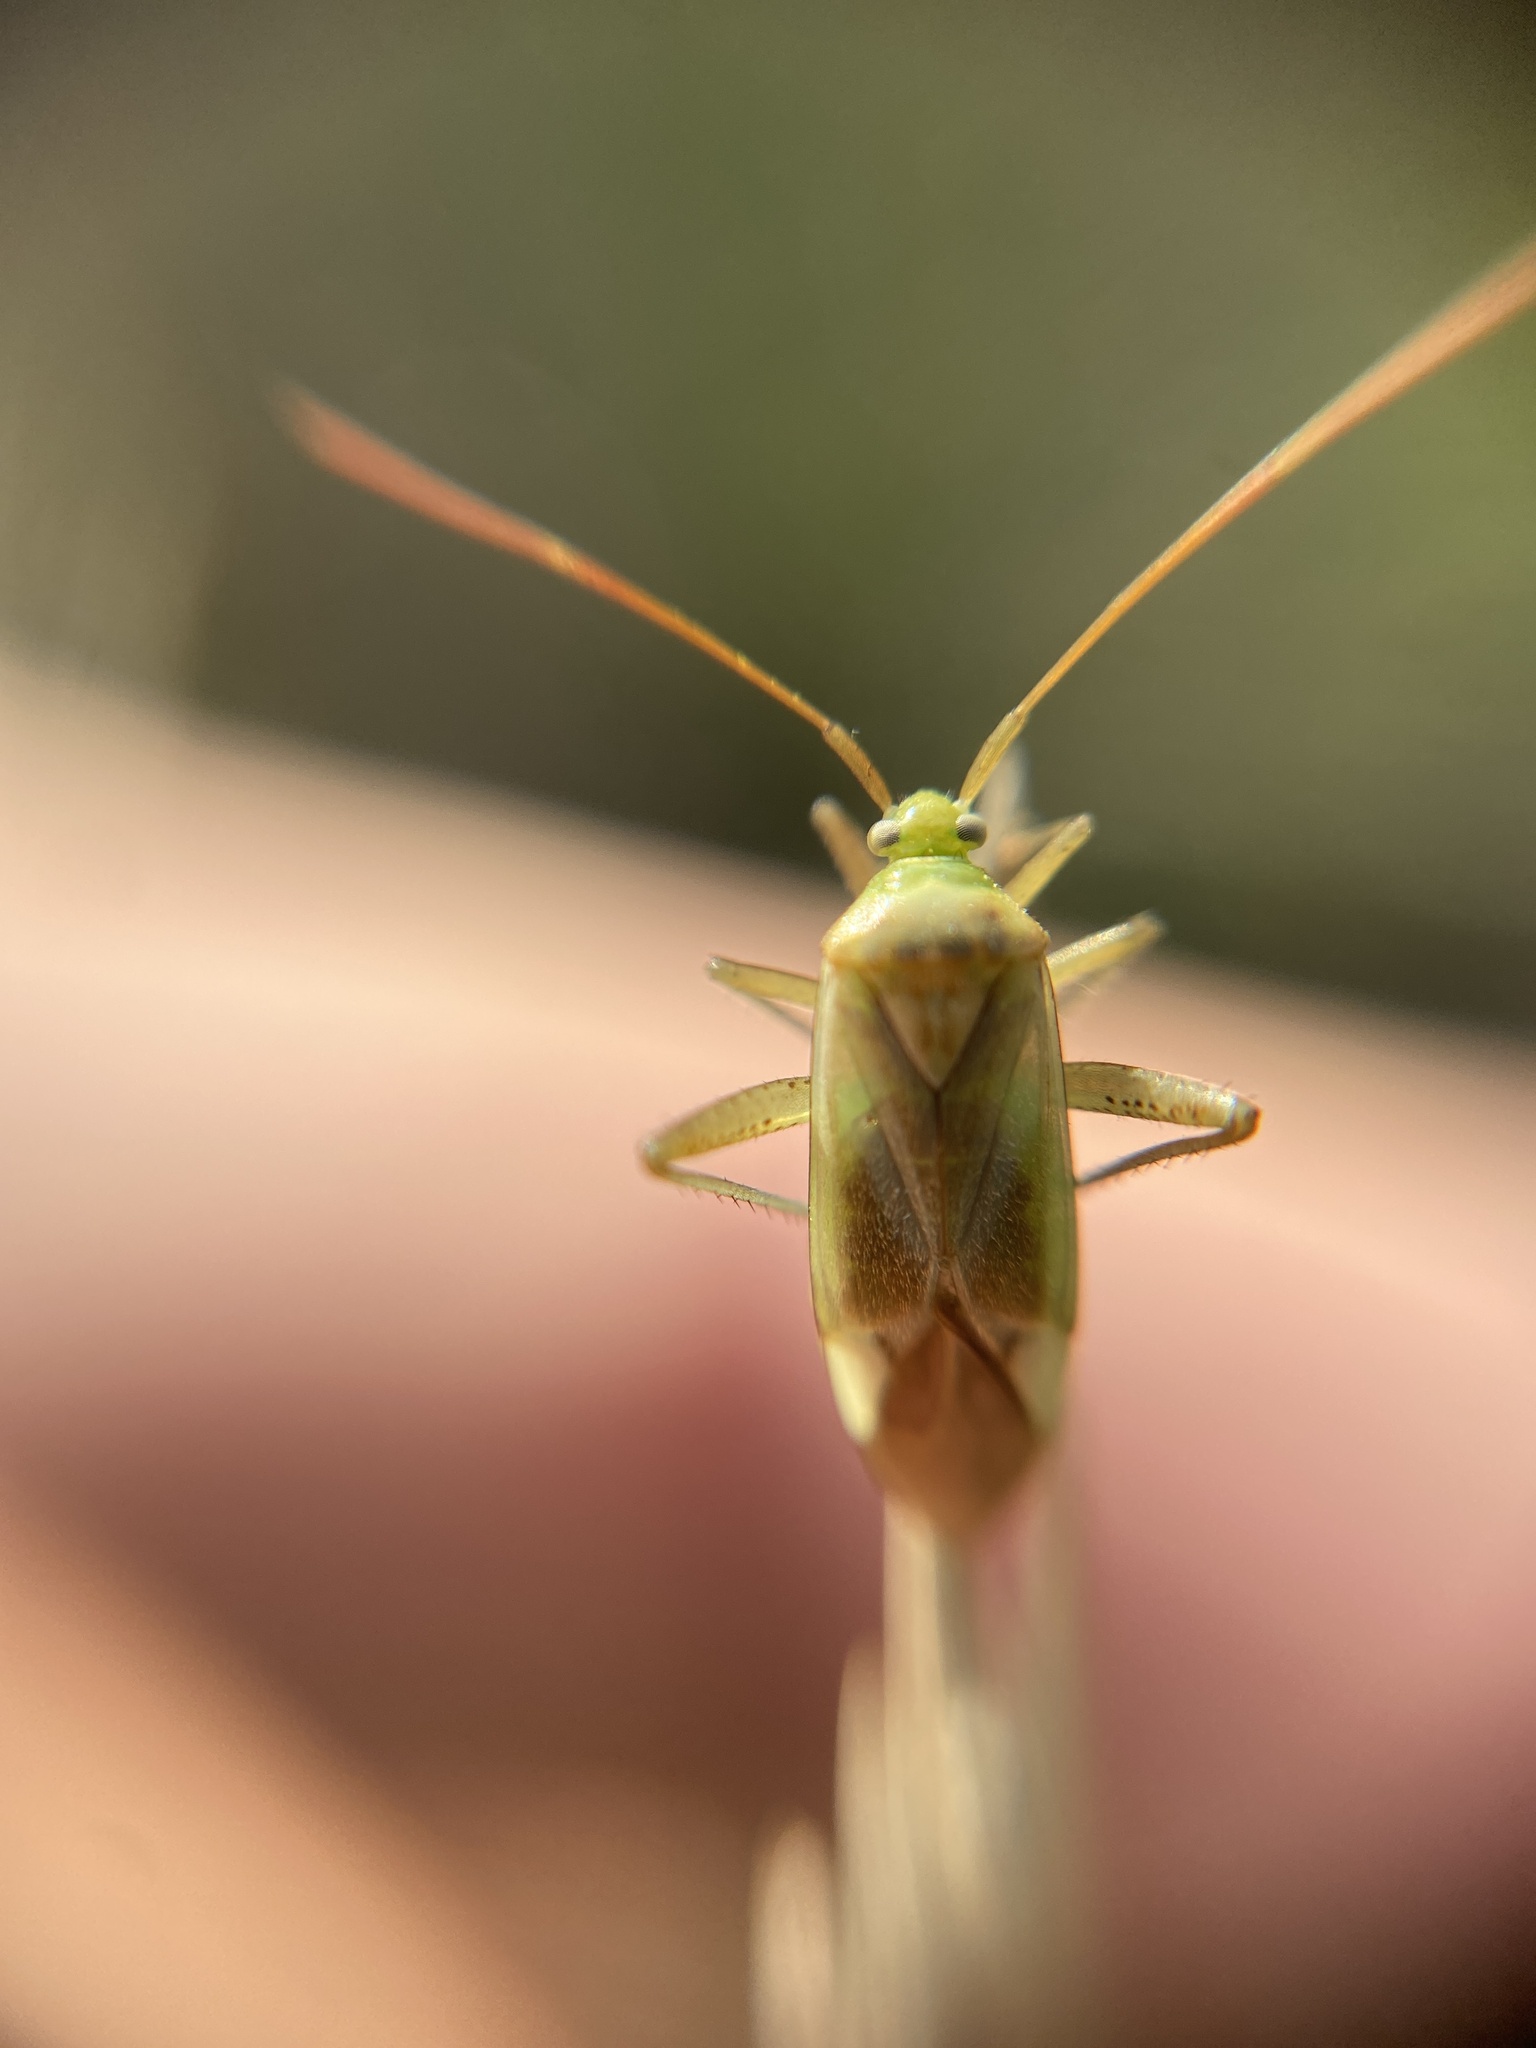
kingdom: Animalia
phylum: Arthropoda
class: Insecta
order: Hemiptera
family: Miridae
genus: Adelphocoris
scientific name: Adelphocoris lineolatus
